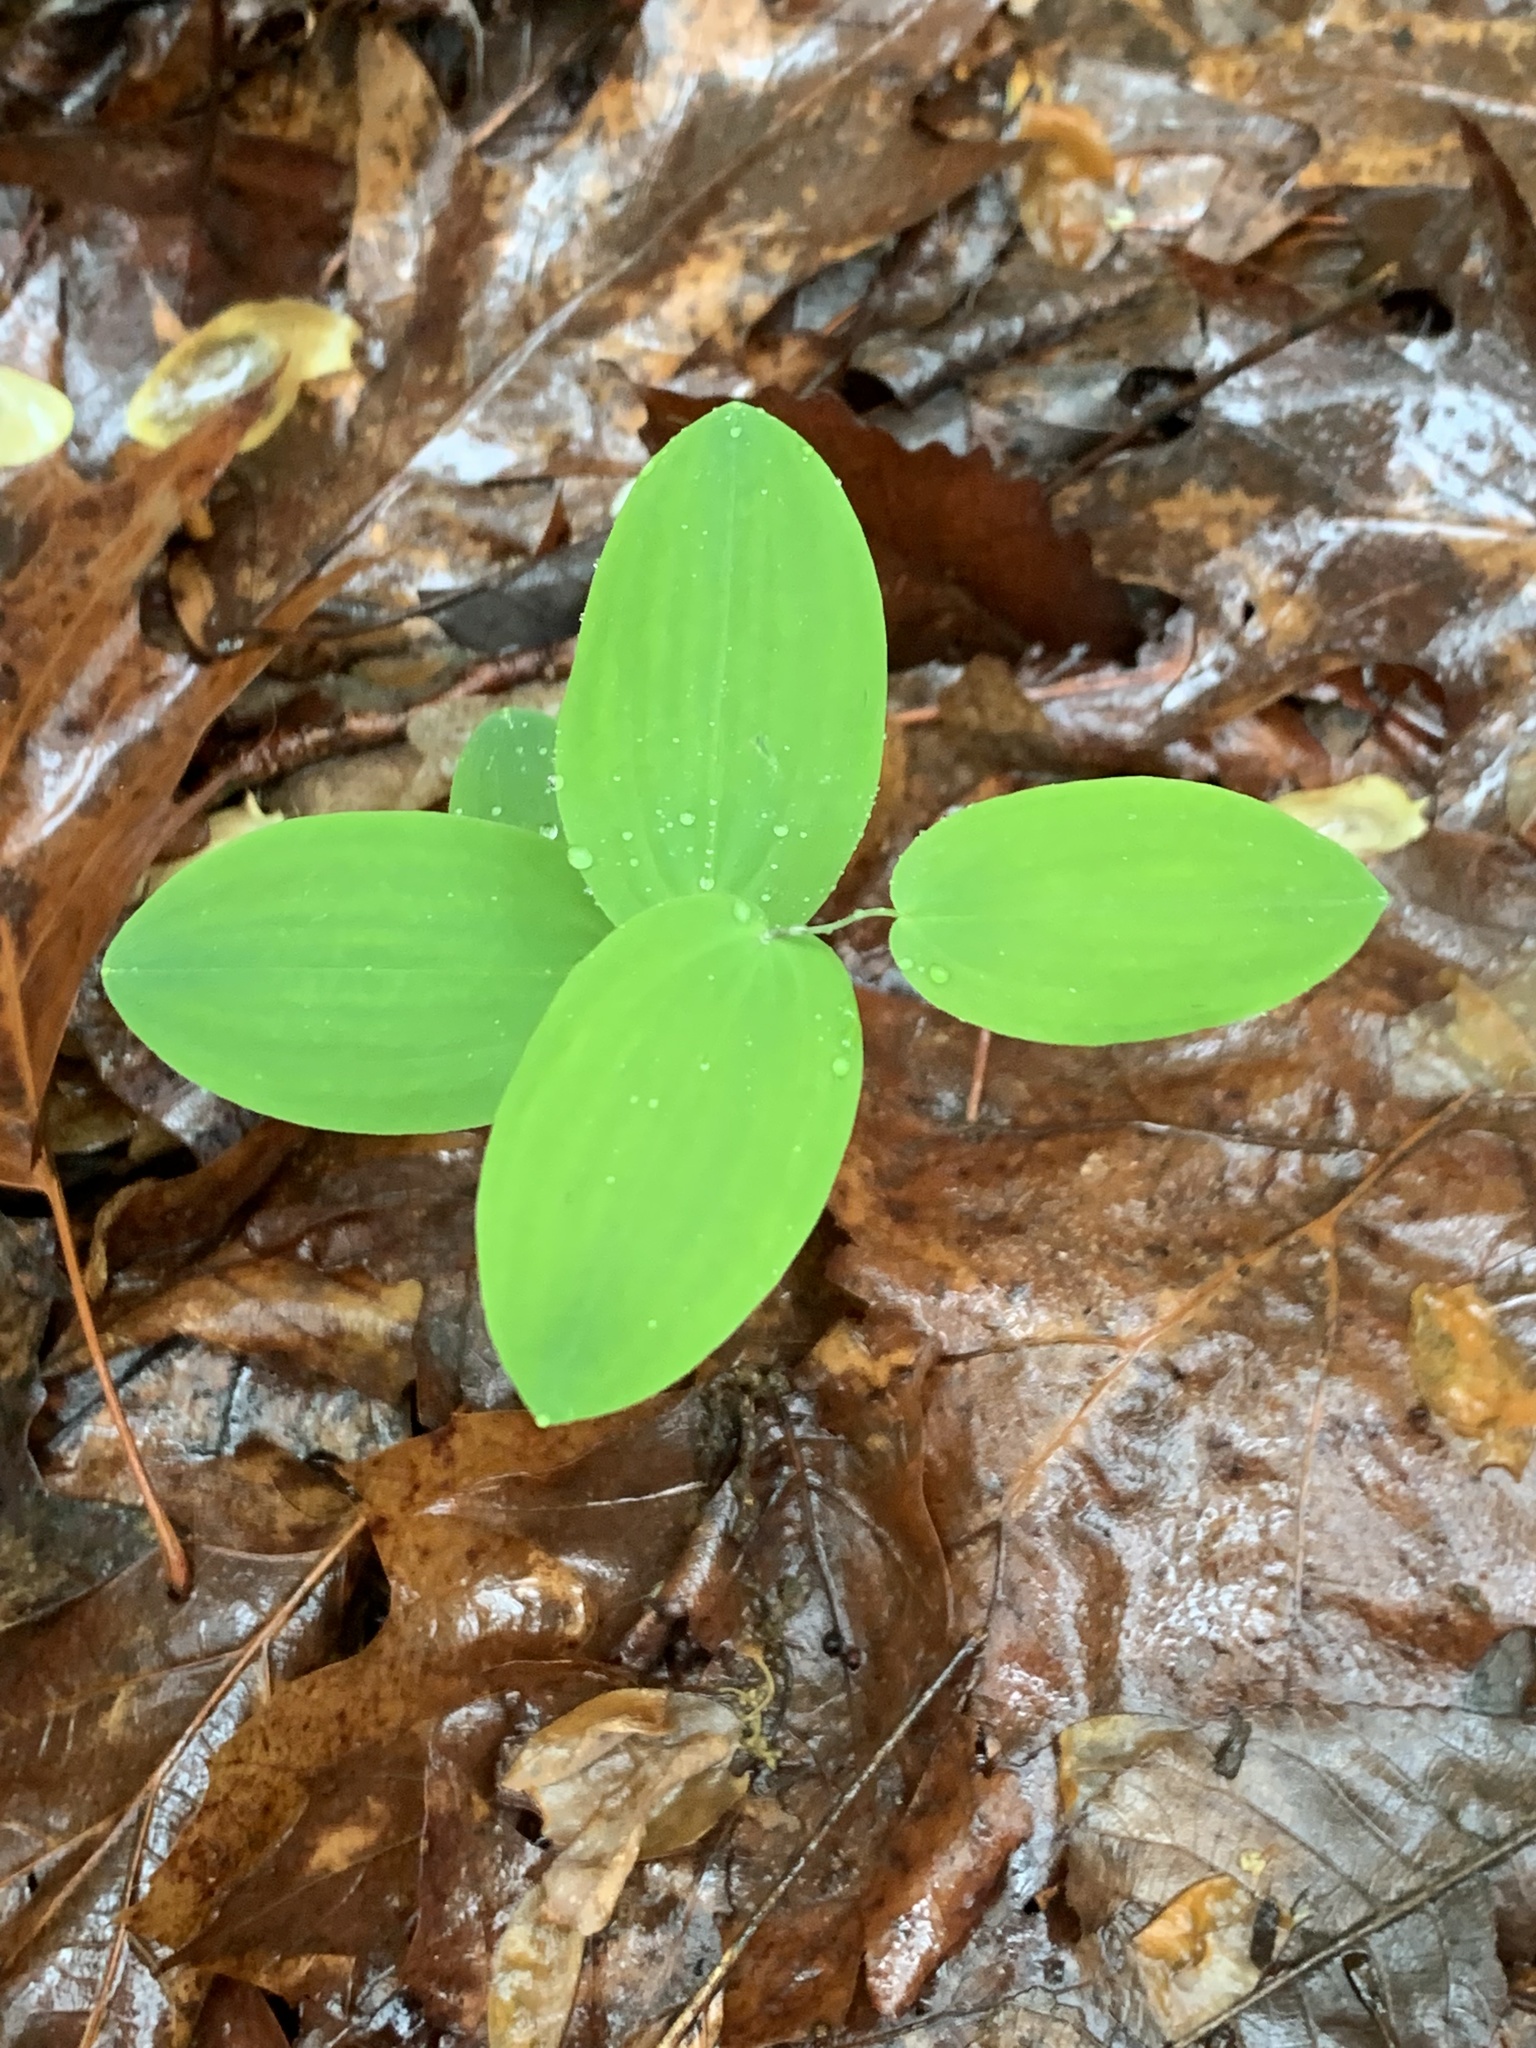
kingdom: Plantae
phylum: Tracheophyta
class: Liliopsida
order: Liliales
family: Colchicaceae
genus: Uvularia
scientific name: Uvularia perfoliata
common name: Perfoliate bellwort
